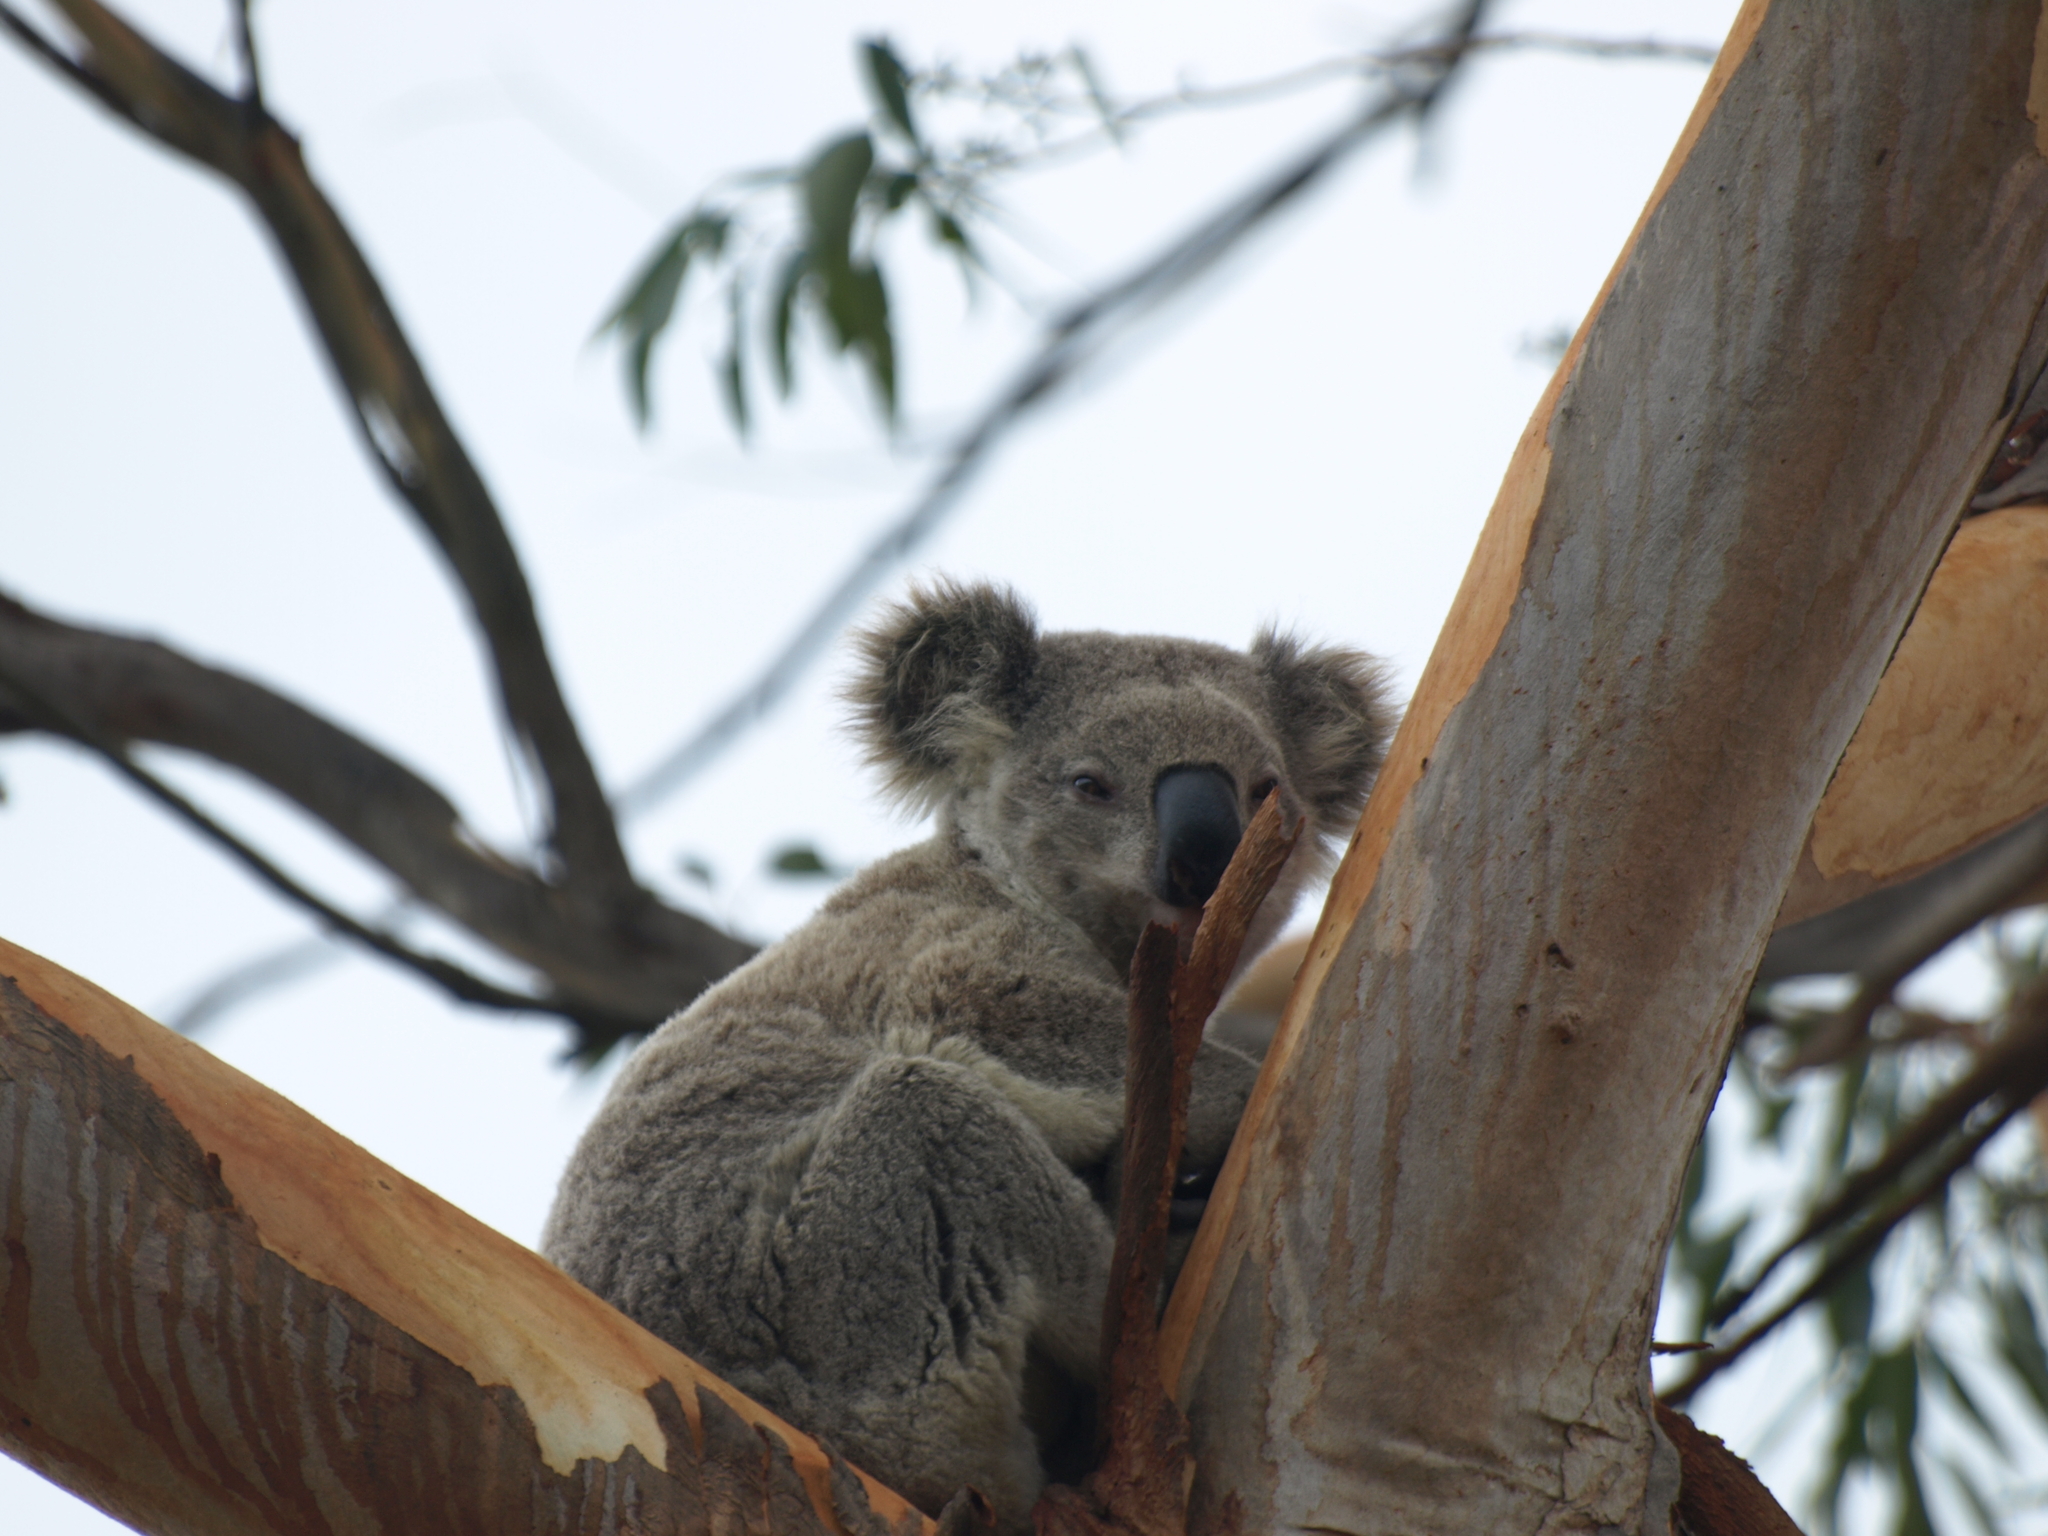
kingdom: Animalia
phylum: Chordata
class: Mammalia
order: Diprotodontia
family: Phascolarctidae
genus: Phascolarctos
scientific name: Phascolarctos cinereus
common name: Koala
